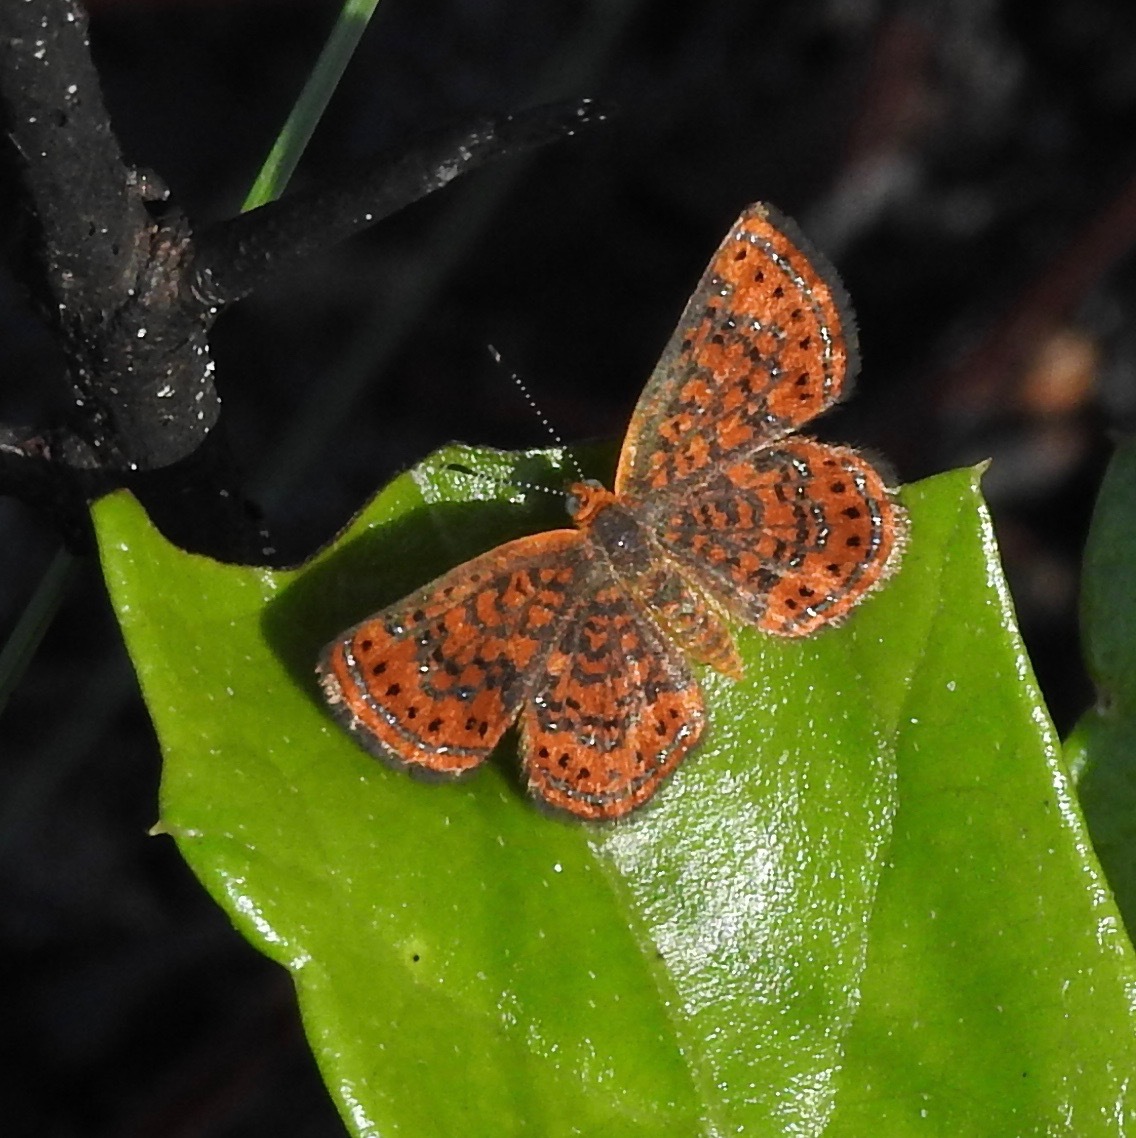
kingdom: Animalia
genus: Calephelis
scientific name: Calephelis virginiensis
